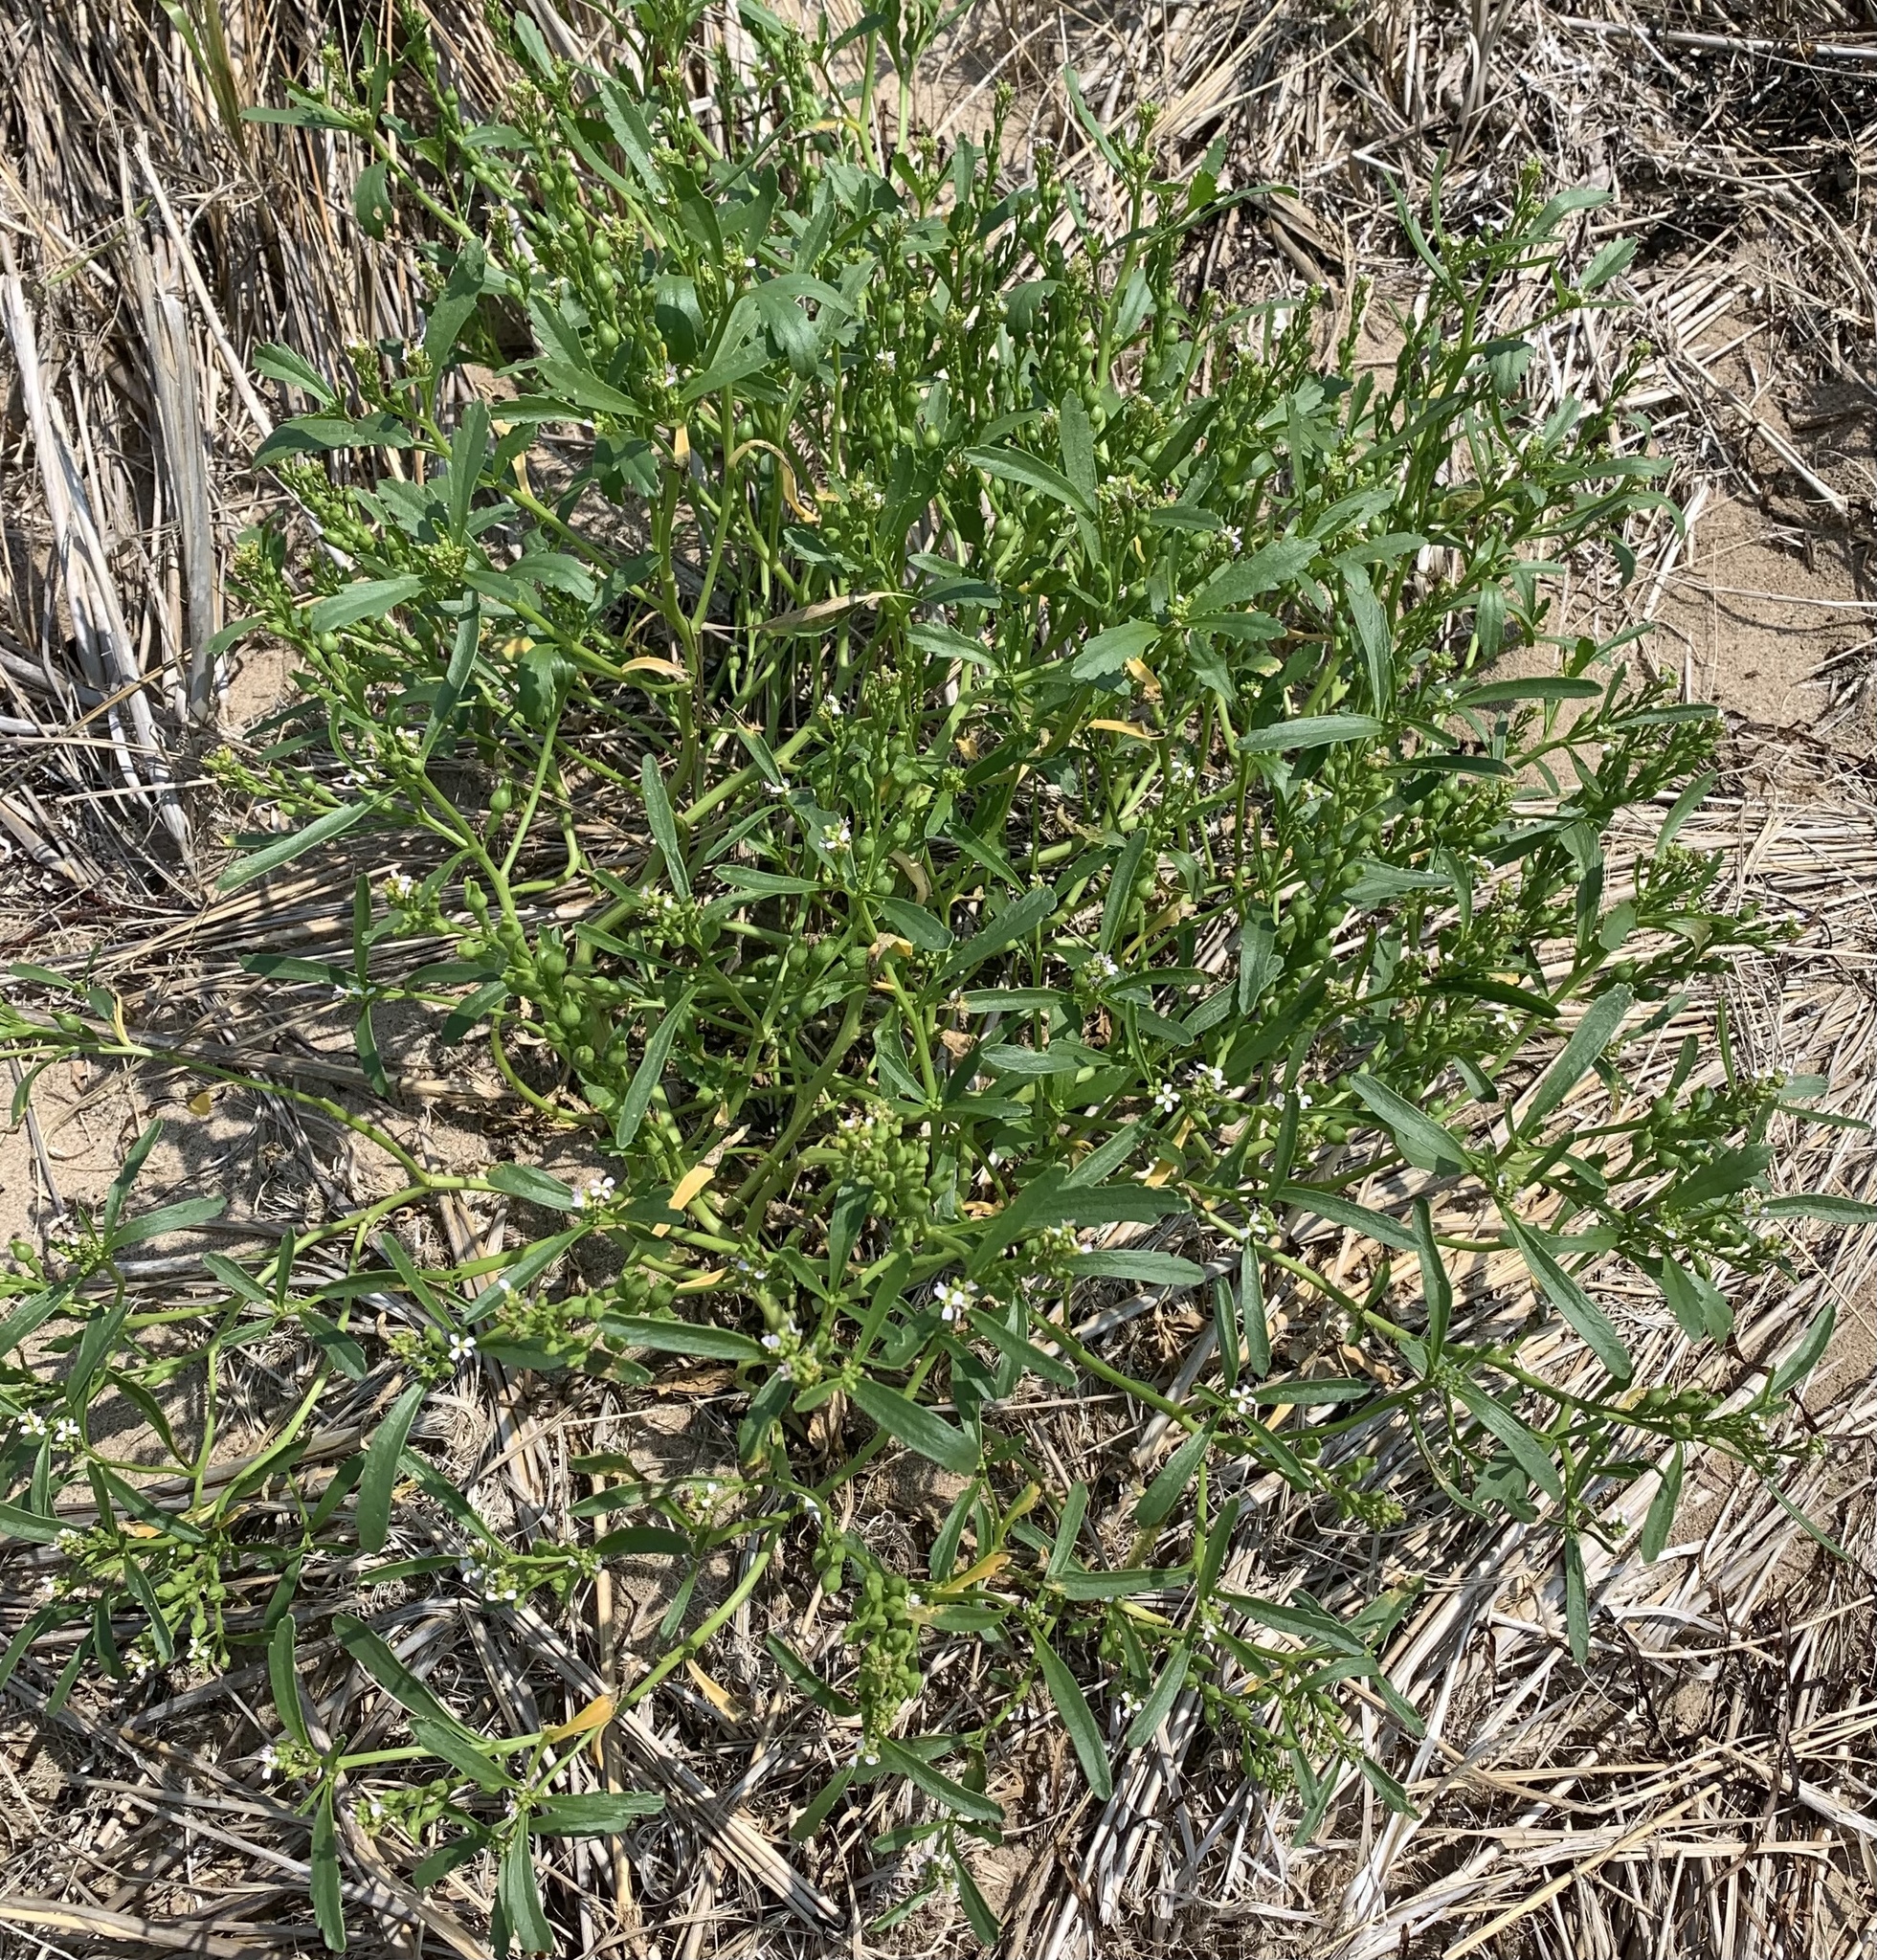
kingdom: Plantae
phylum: Tracheophyta
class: Magnoliopsida
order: Brassicales
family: Brassicaceae
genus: Cakile
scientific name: Cakile edentula
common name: American sea rocket
